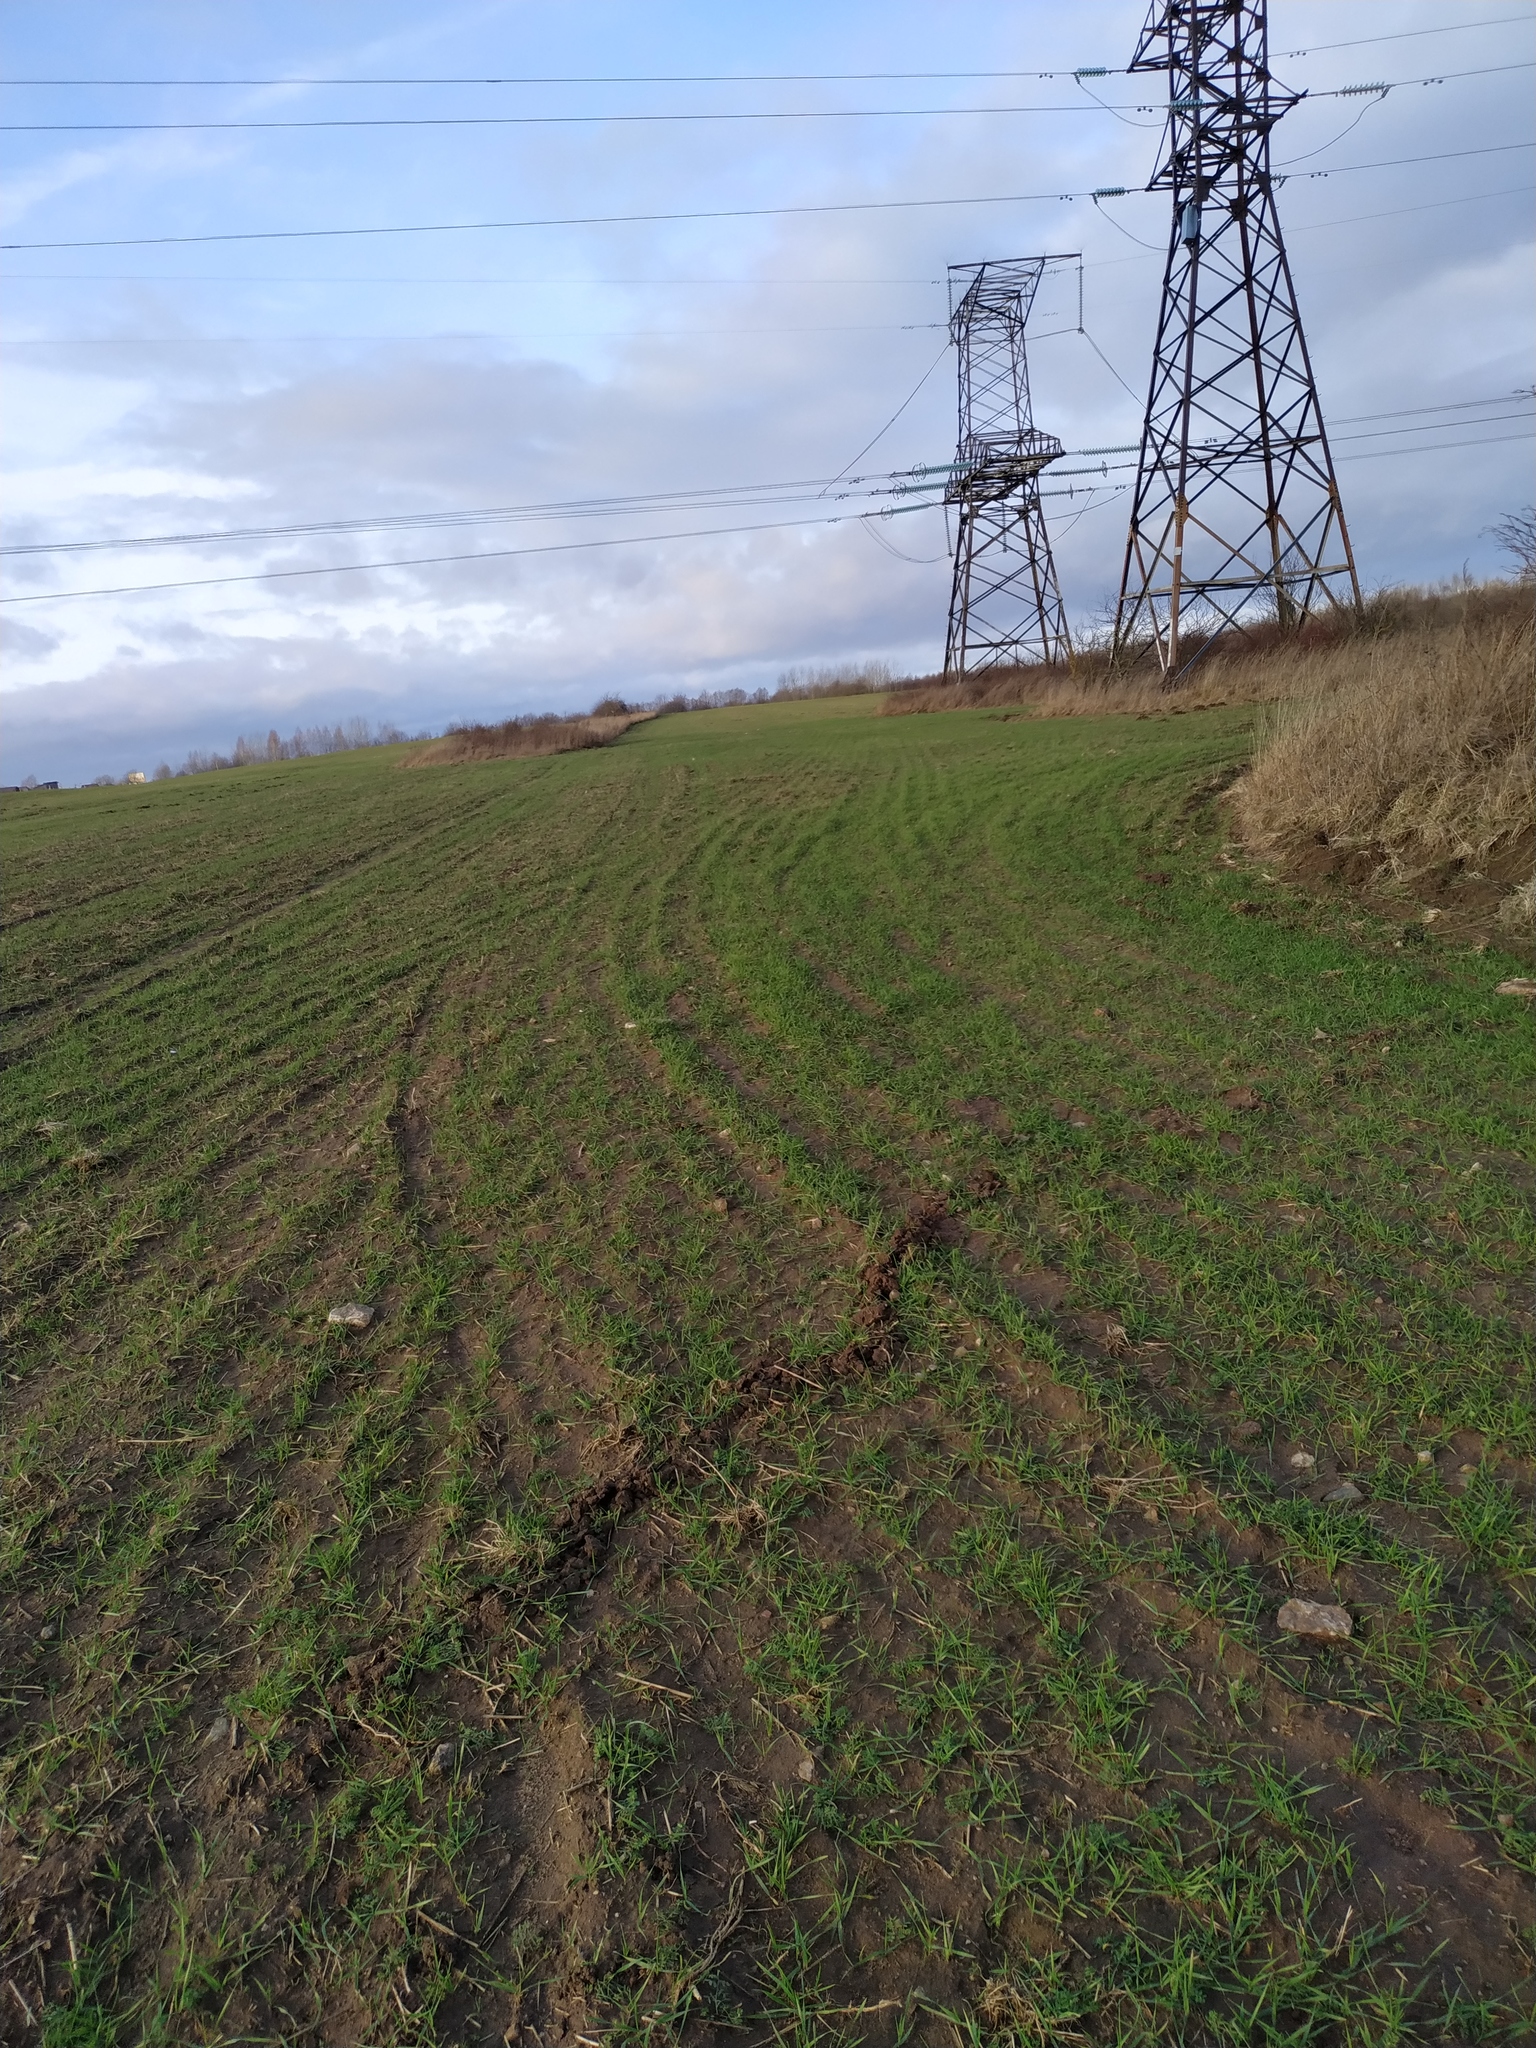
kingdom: Animalia
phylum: Chordata
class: Mammalia
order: Soricomorpha
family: Talpidae
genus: Talpa
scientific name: Talpa europaea
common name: European mole
